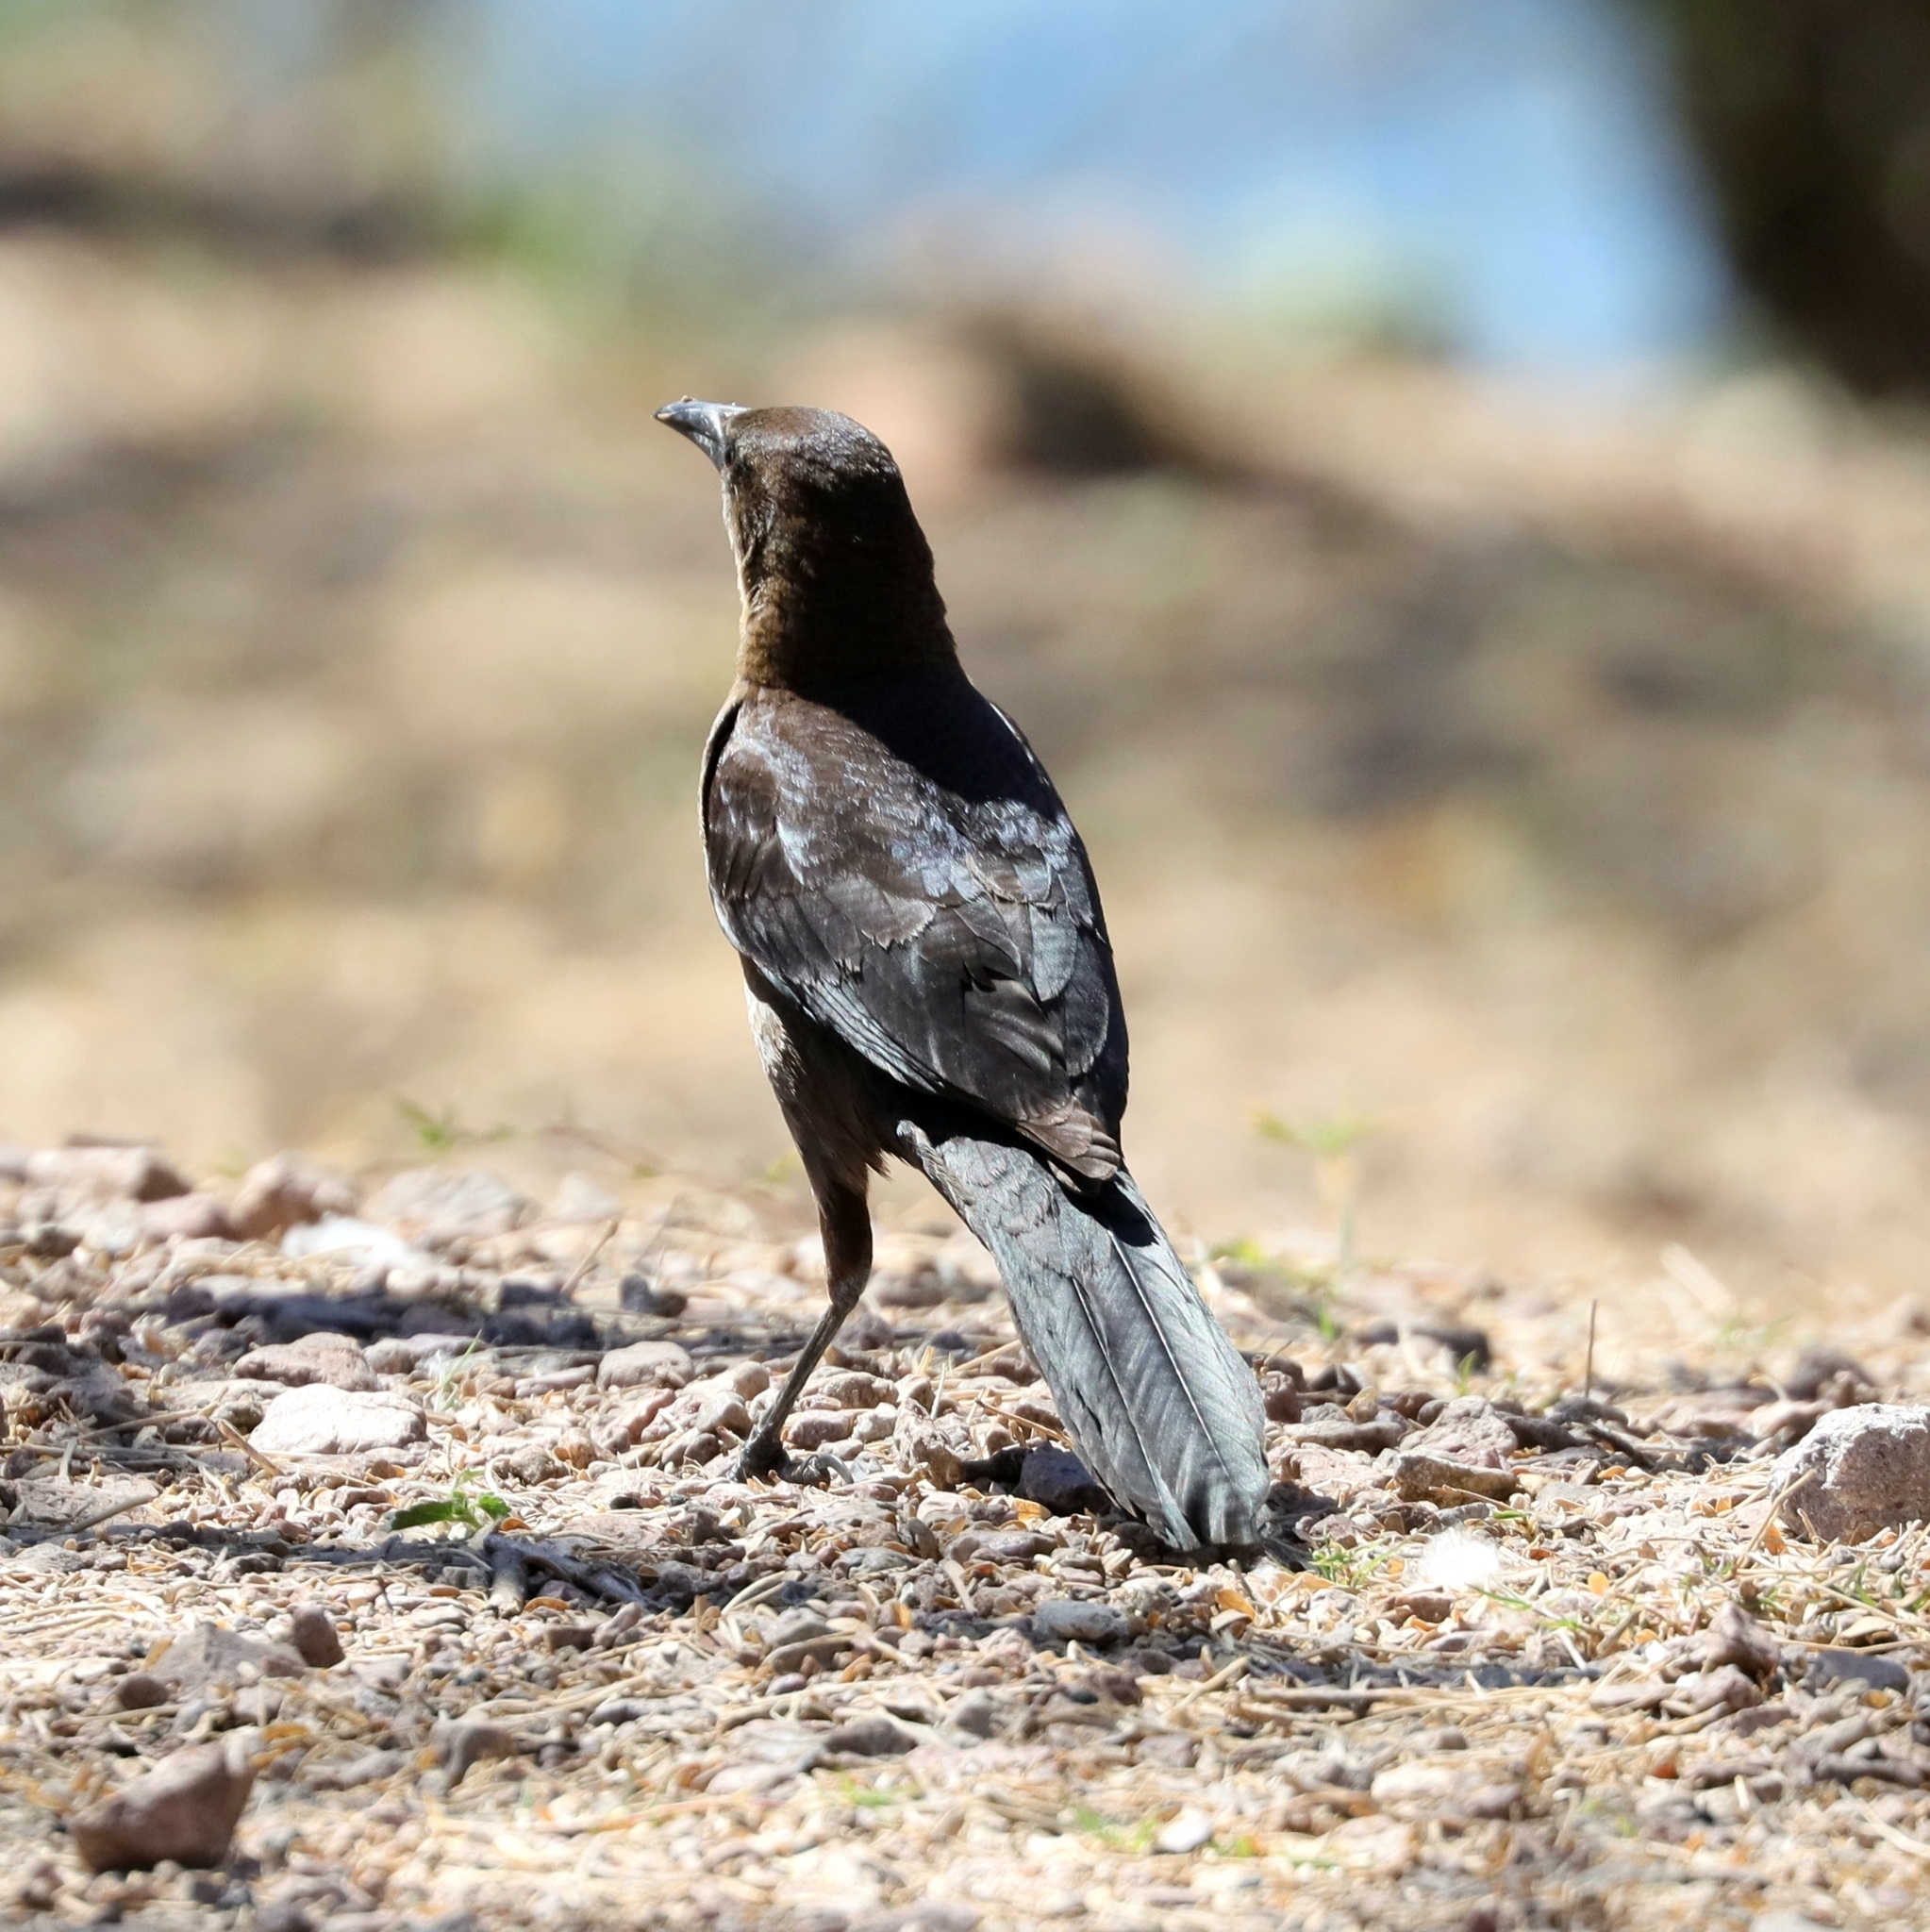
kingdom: Animalia
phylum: Chordata
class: Aves
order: Passeriformes
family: Icteridae
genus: Quiscalus
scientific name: Quiscalus mexicanus
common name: Great-tailed grackle
